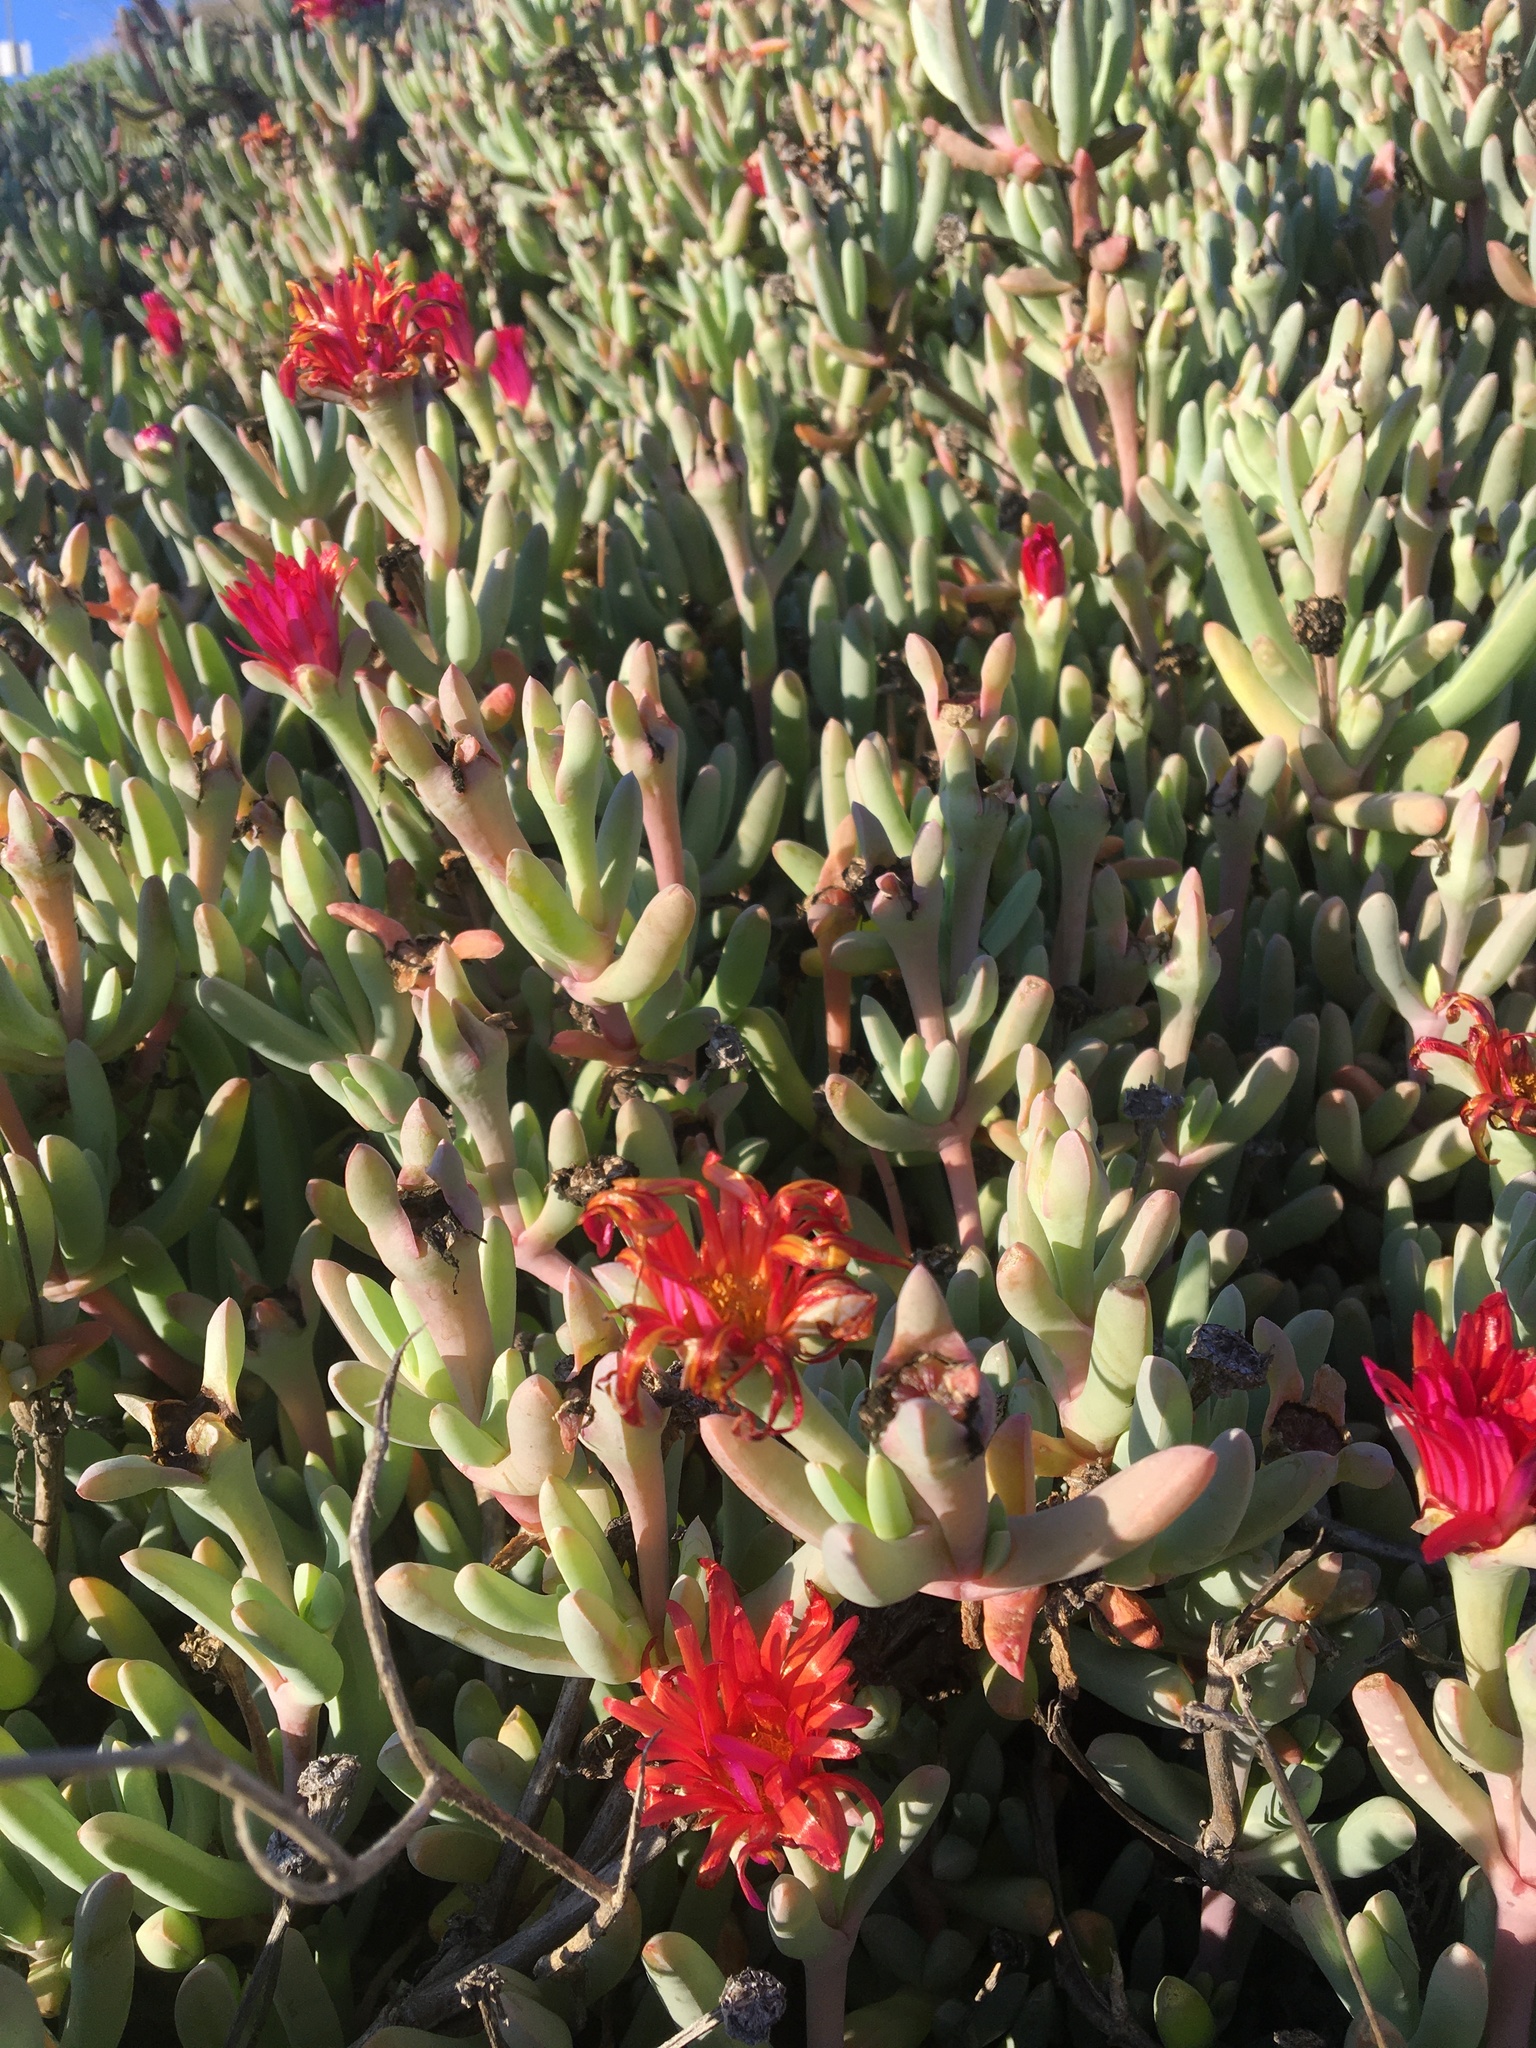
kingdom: Plantae
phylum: Tracheophyta
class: Magnoliopsida
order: Caryophyllales
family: Aizoaceae
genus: Malephora
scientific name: Malephora crocea
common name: Coppery mesemb
